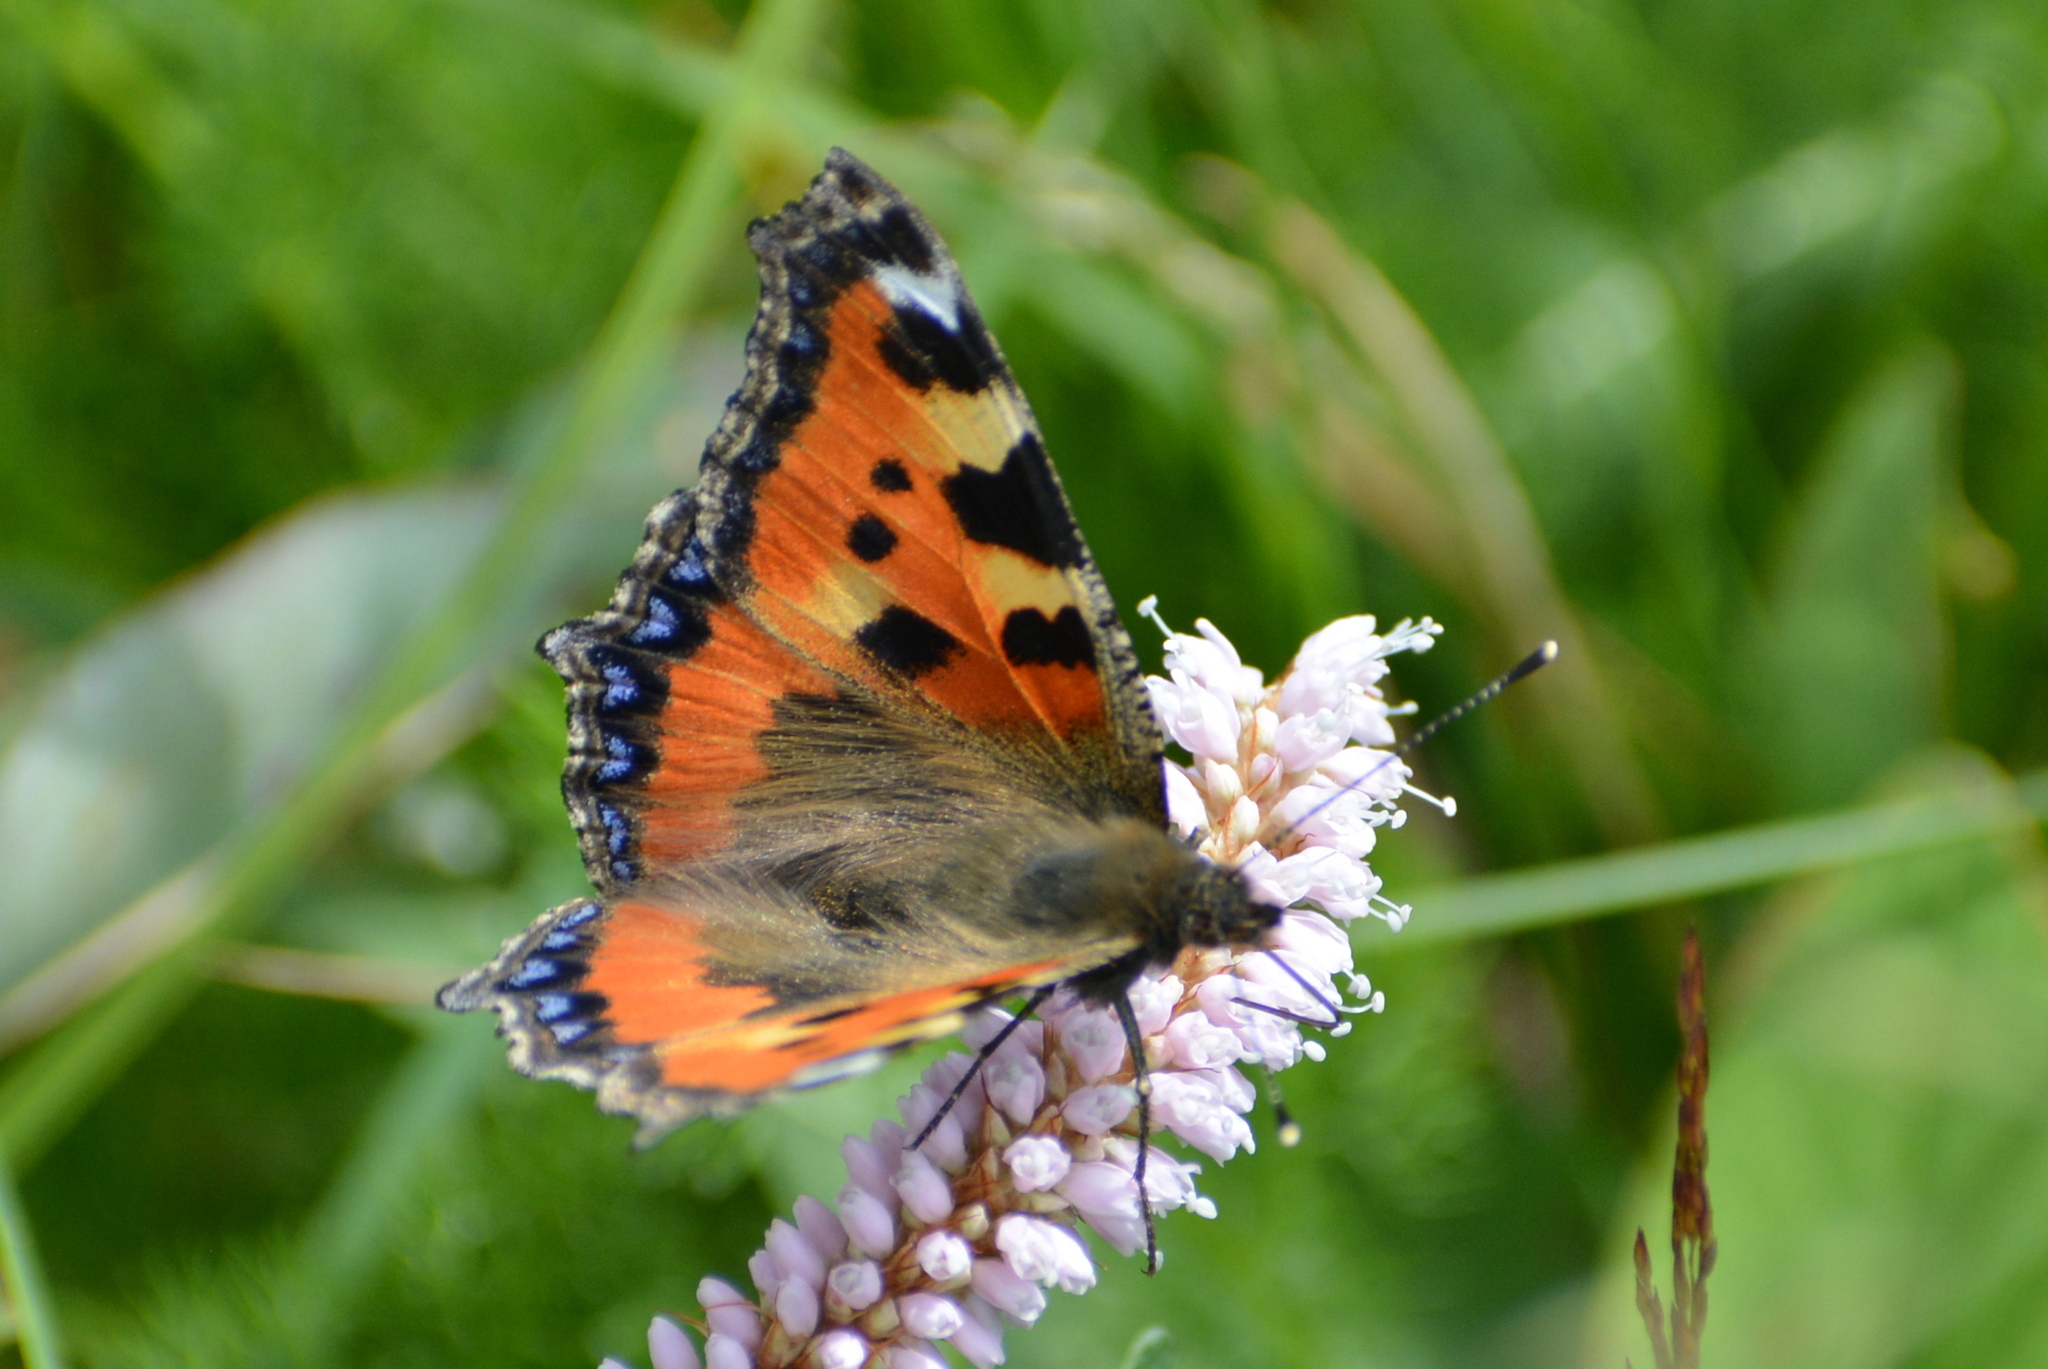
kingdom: Animalia
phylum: Arthropoda
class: Insecta
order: Lepidoptera
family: Nymphalidae
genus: Aglais
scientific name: Aglais urticae
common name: Small tortoiseshell
